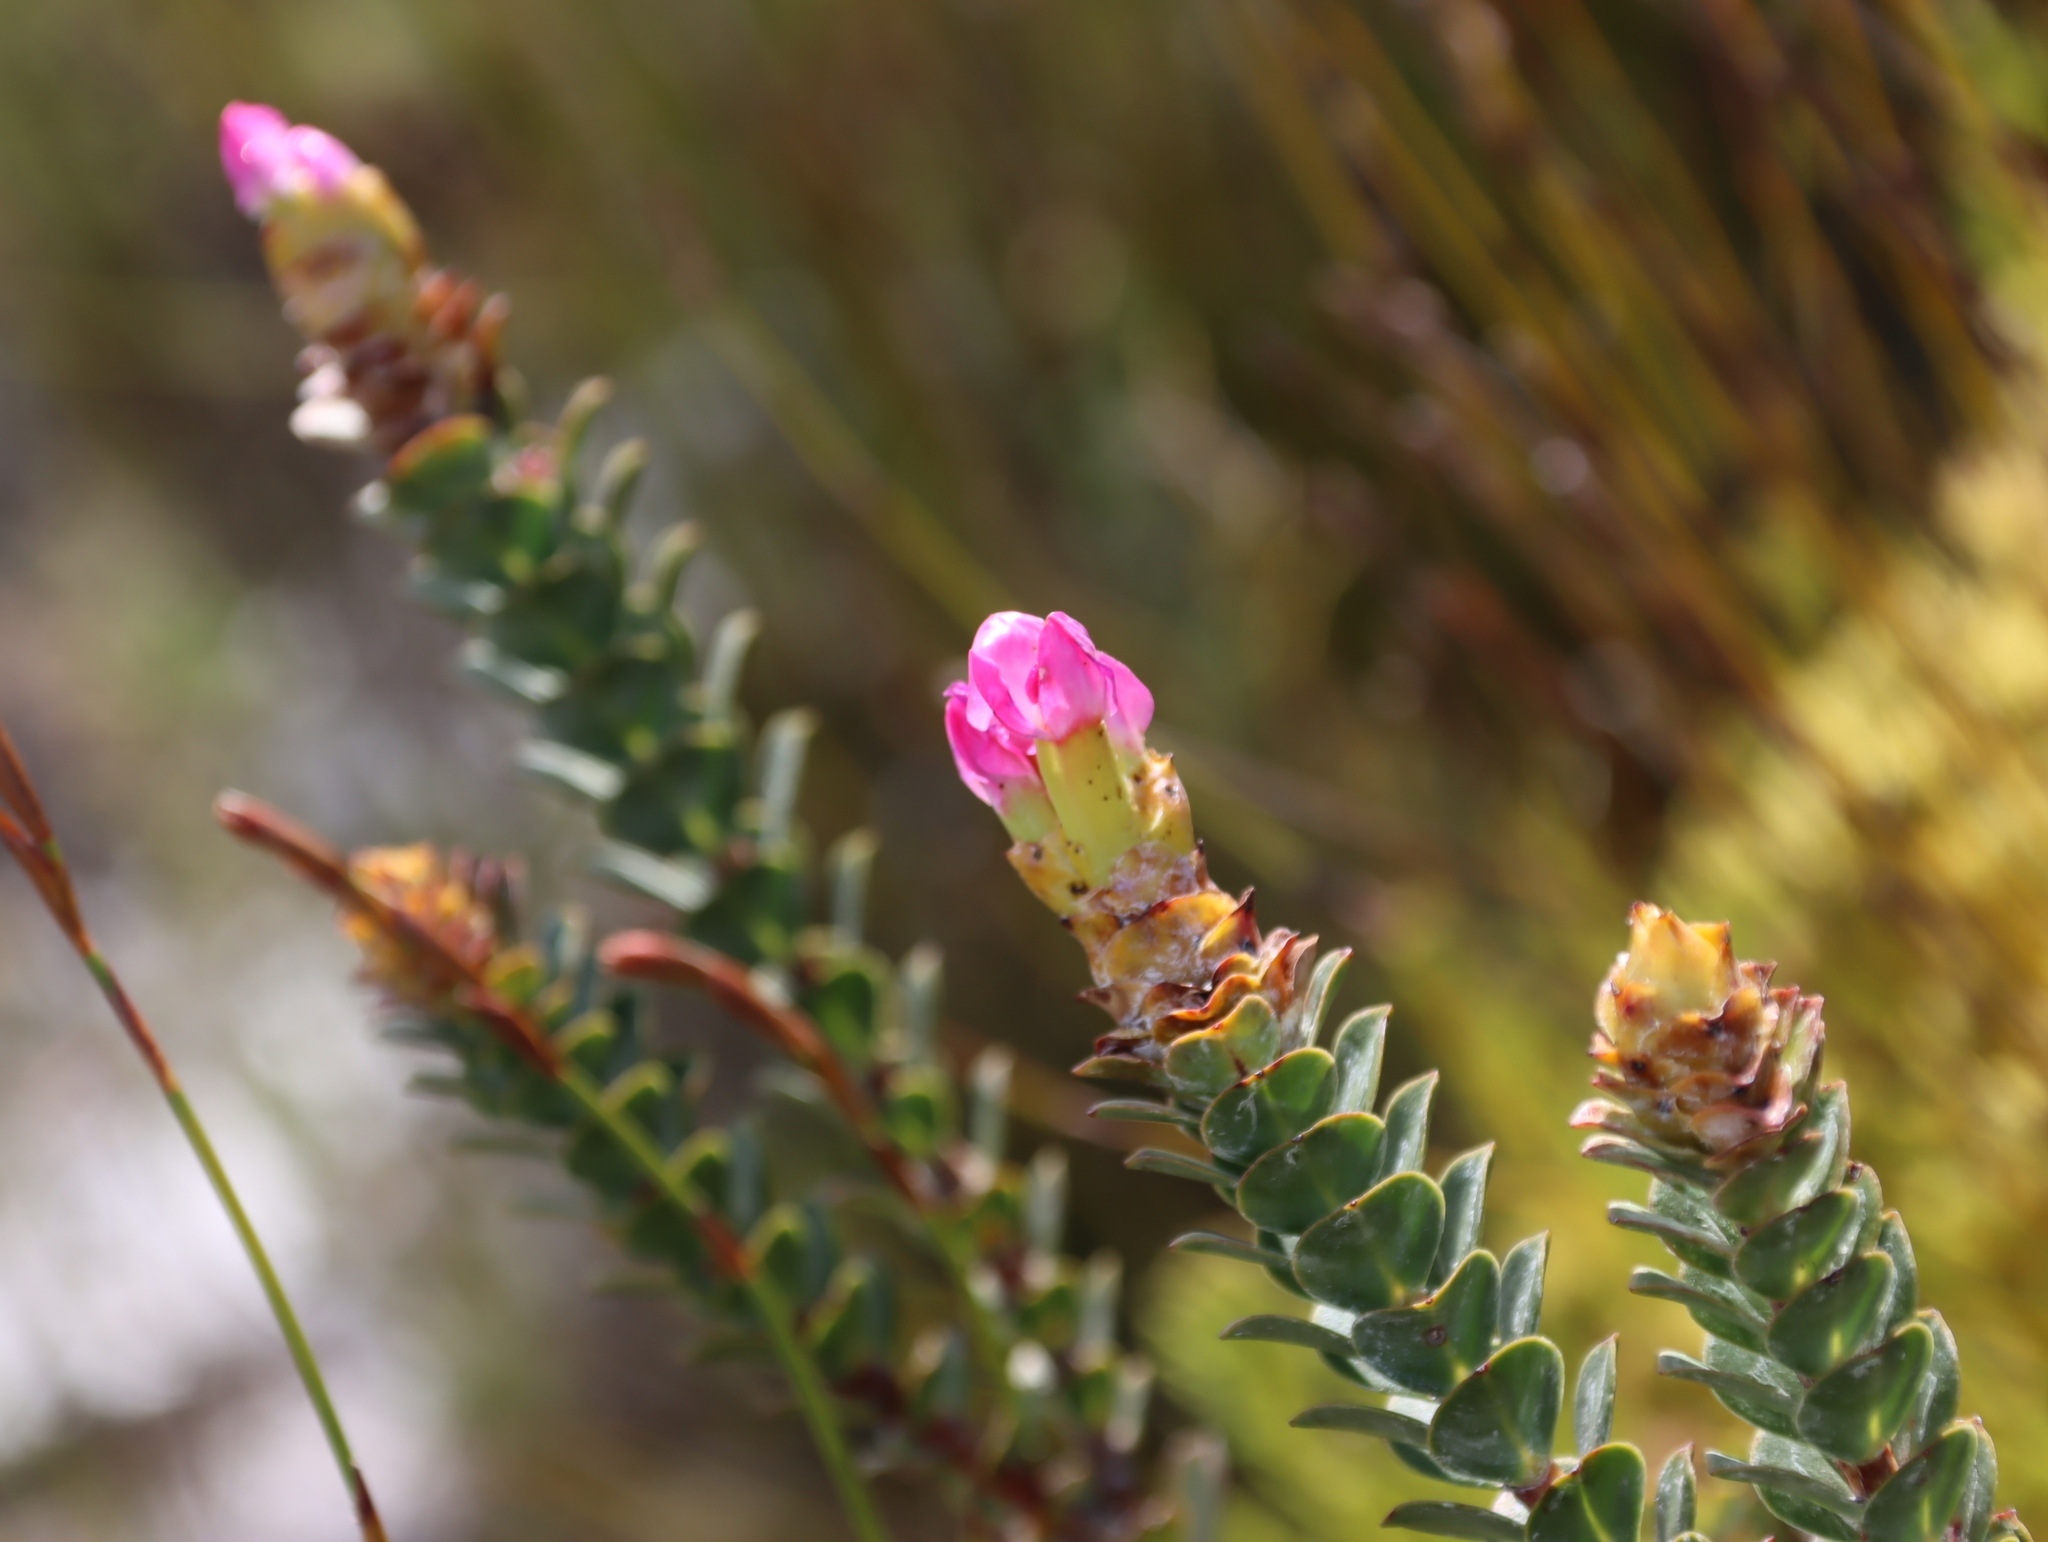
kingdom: Plantae
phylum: Tracheophyta
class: Magnoliopsida
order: Myrtales
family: Penaeaceae
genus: Saltera
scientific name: Saltera sarcocolla
